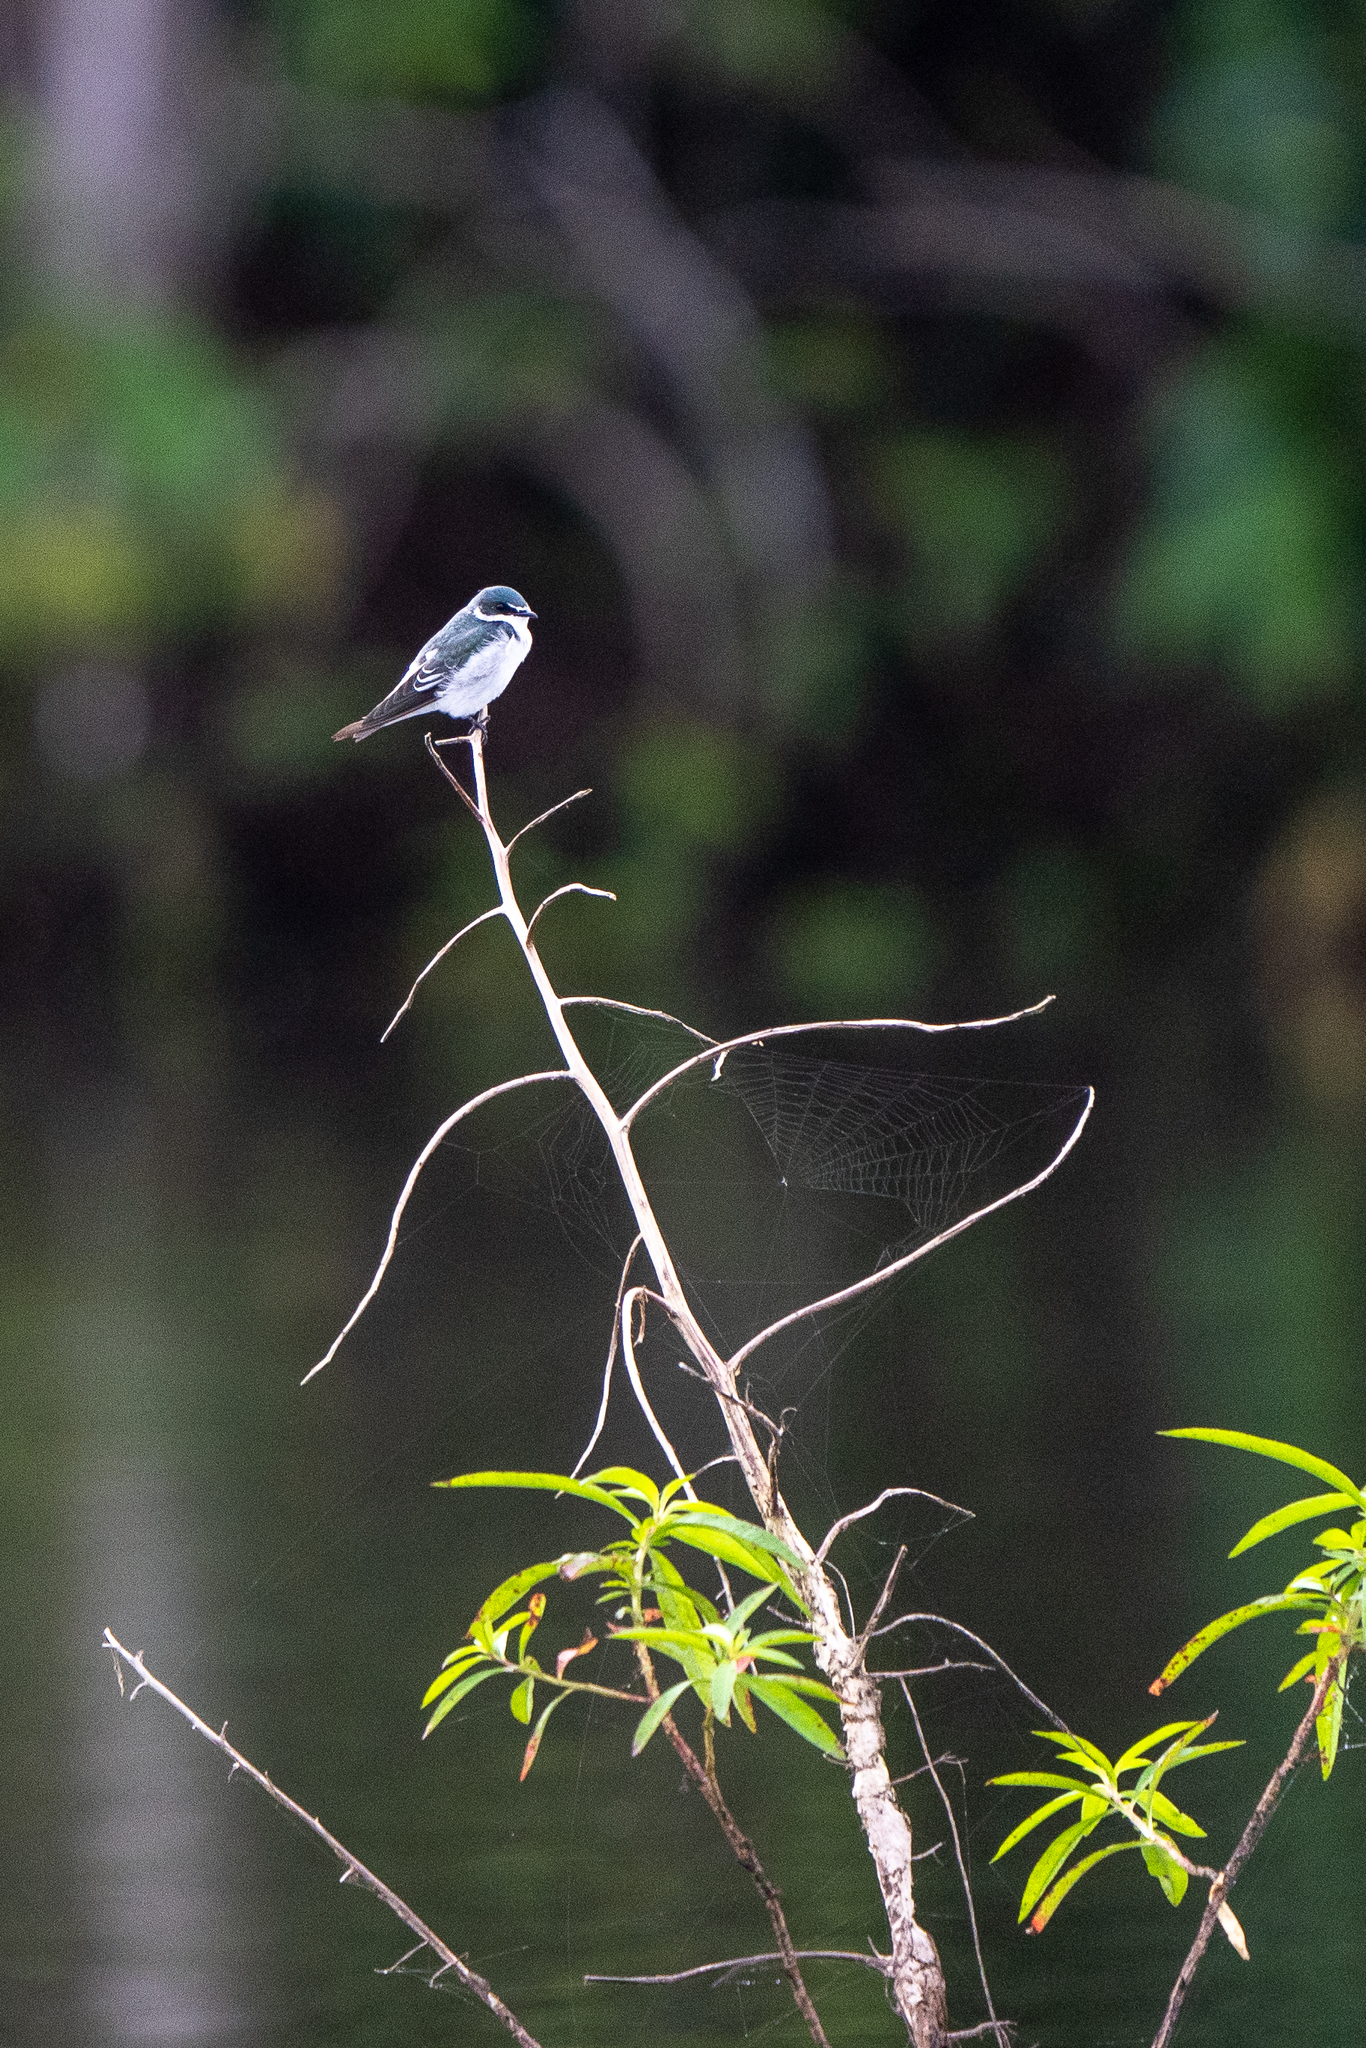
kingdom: Animalia
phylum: Chordata
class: Aves
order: Passeriformes
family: Hirundinidae
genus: Tachycineta
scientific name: Tachycineta albilinea
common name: Mangrove swallow
